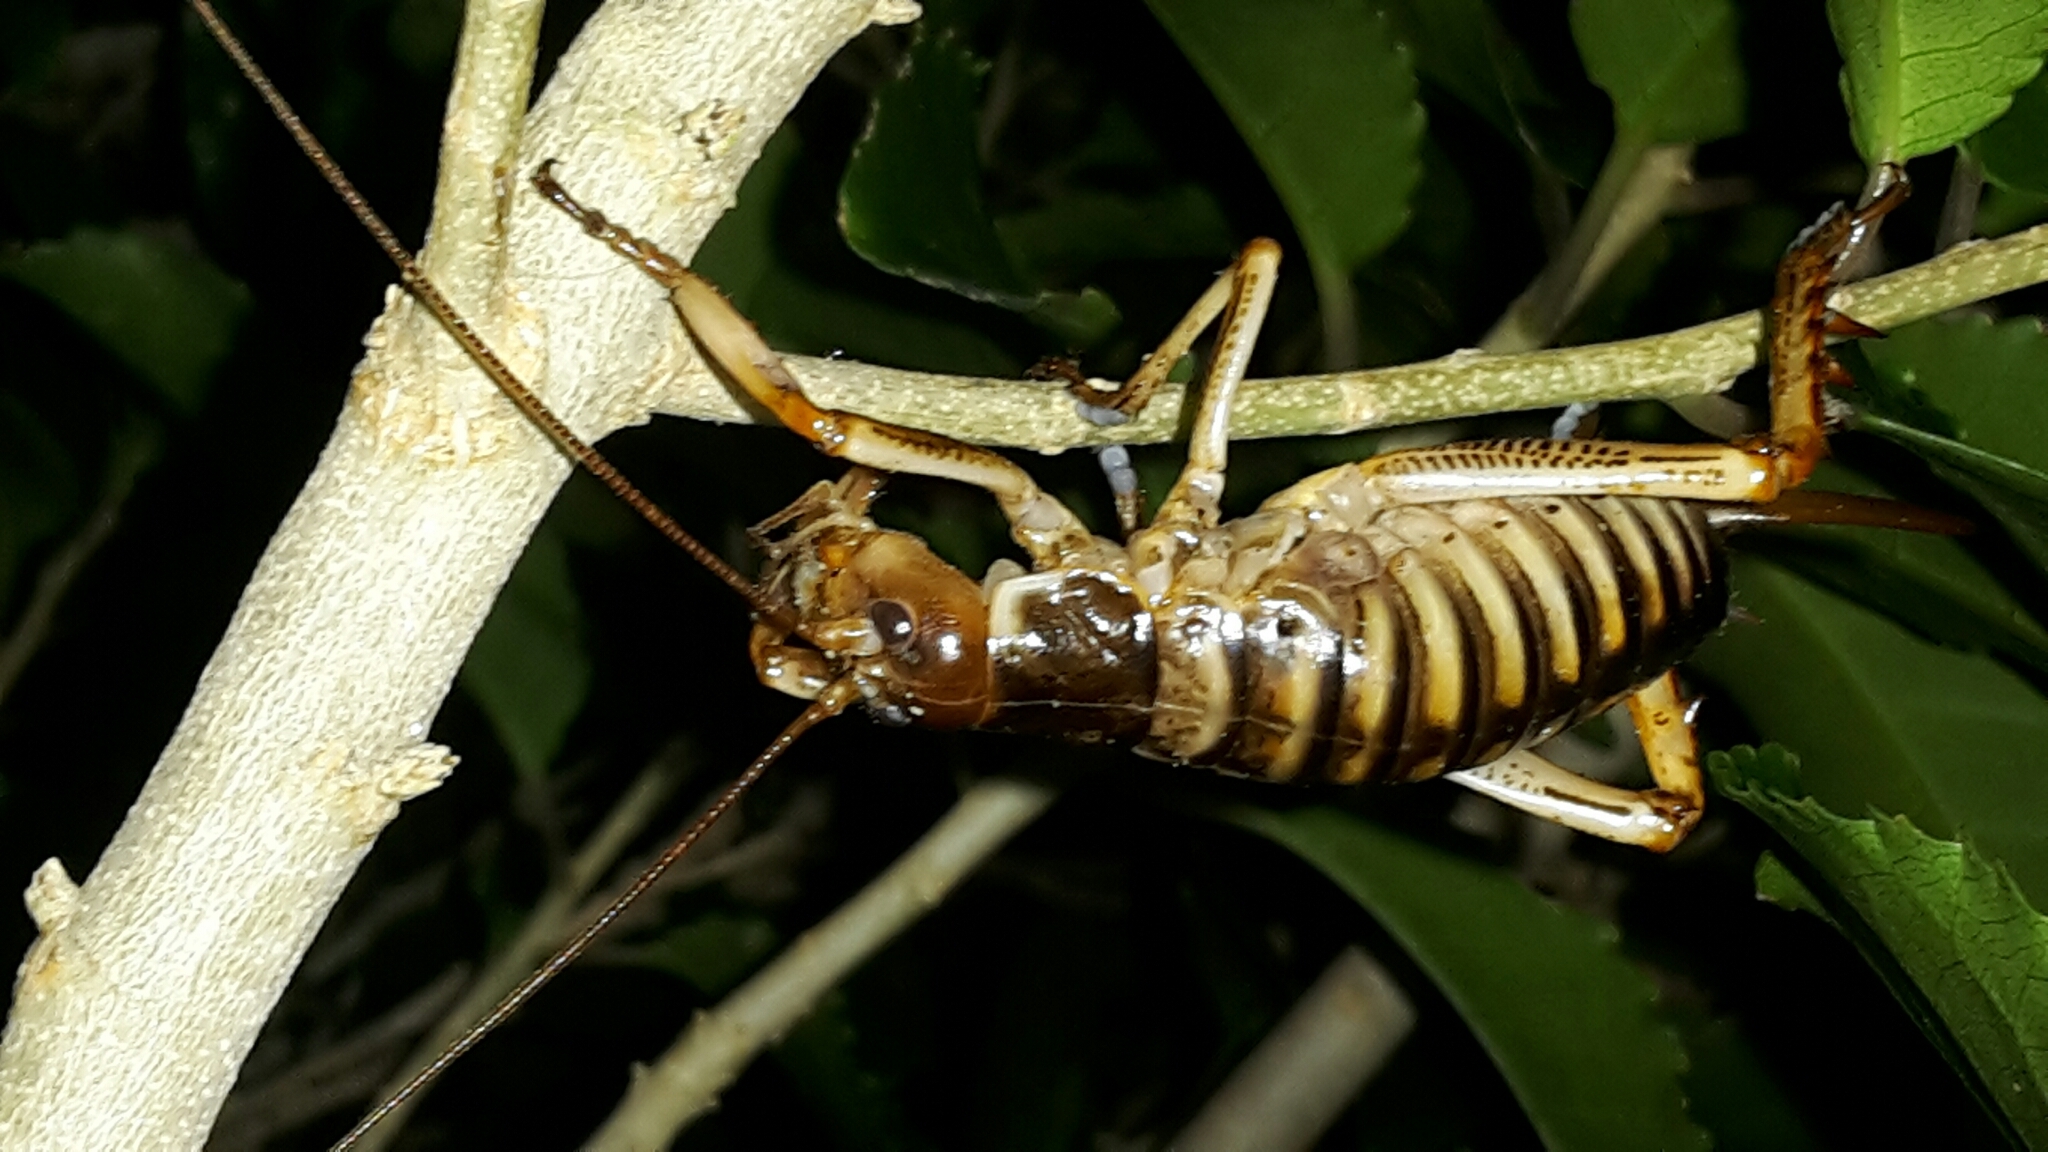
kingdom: Animalia
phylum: Arthropoda
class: Insecta
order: Orthoptera
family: Anostostomatidae
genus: Hemideina
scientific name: Hemideina crassidens
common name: Wellington tree weta
